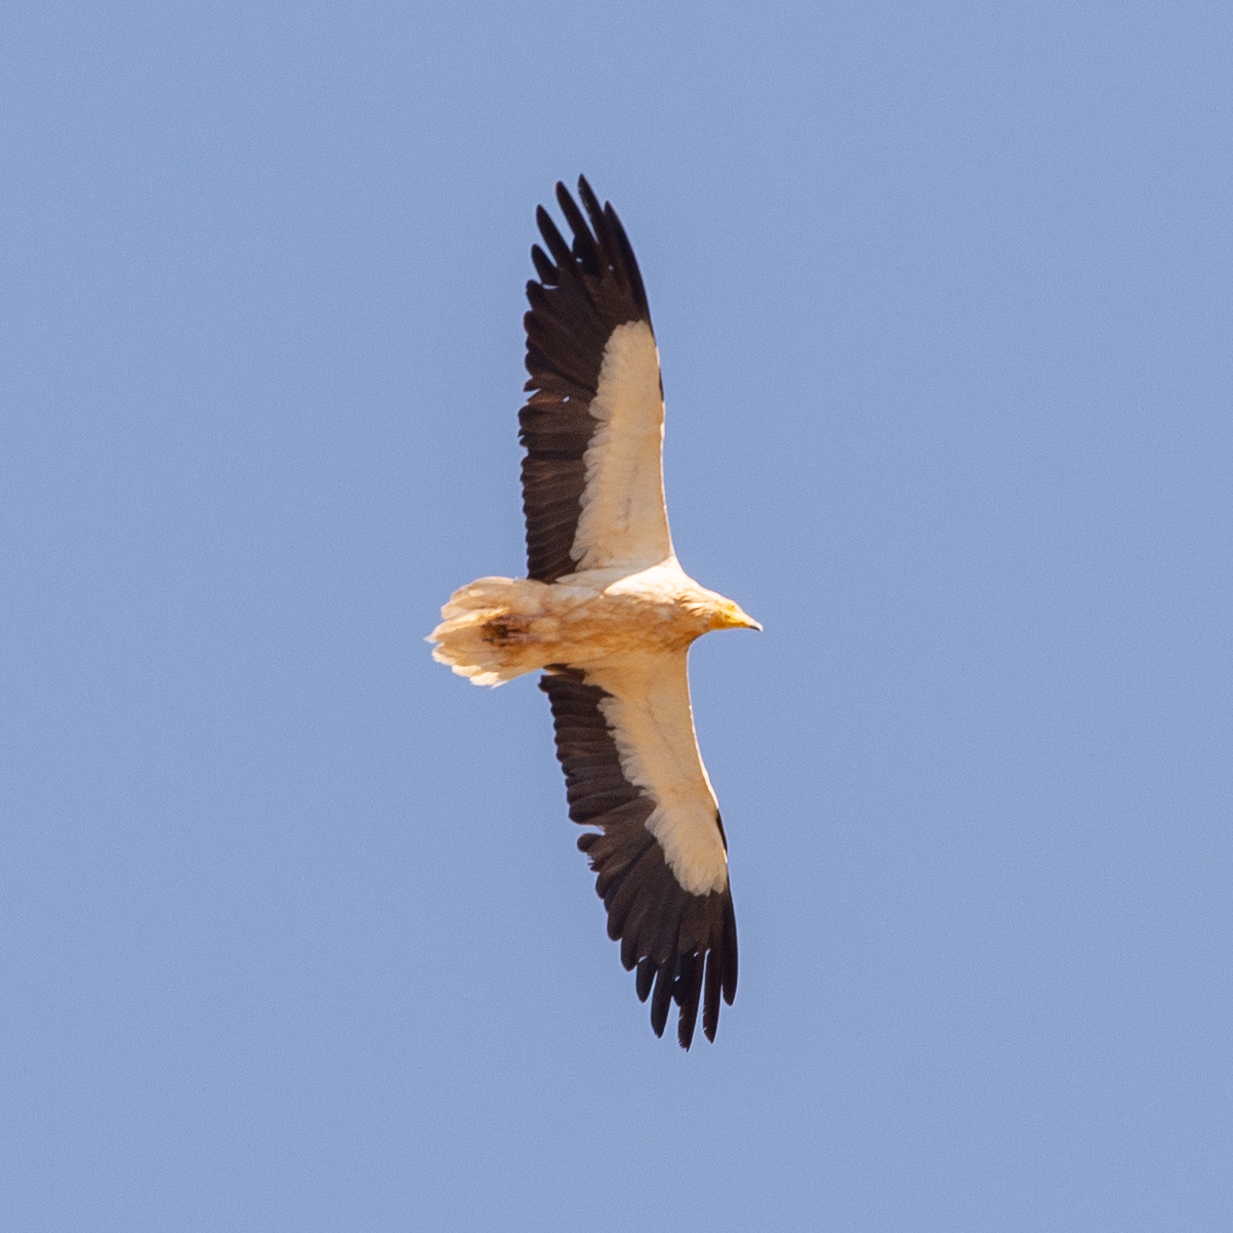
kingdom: Animalia
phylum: Chordata
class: Aves
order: Accipitriformes
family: Accipitridae
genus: Neophron
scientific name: Neophron percnopterus
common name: Egyptian vulture
